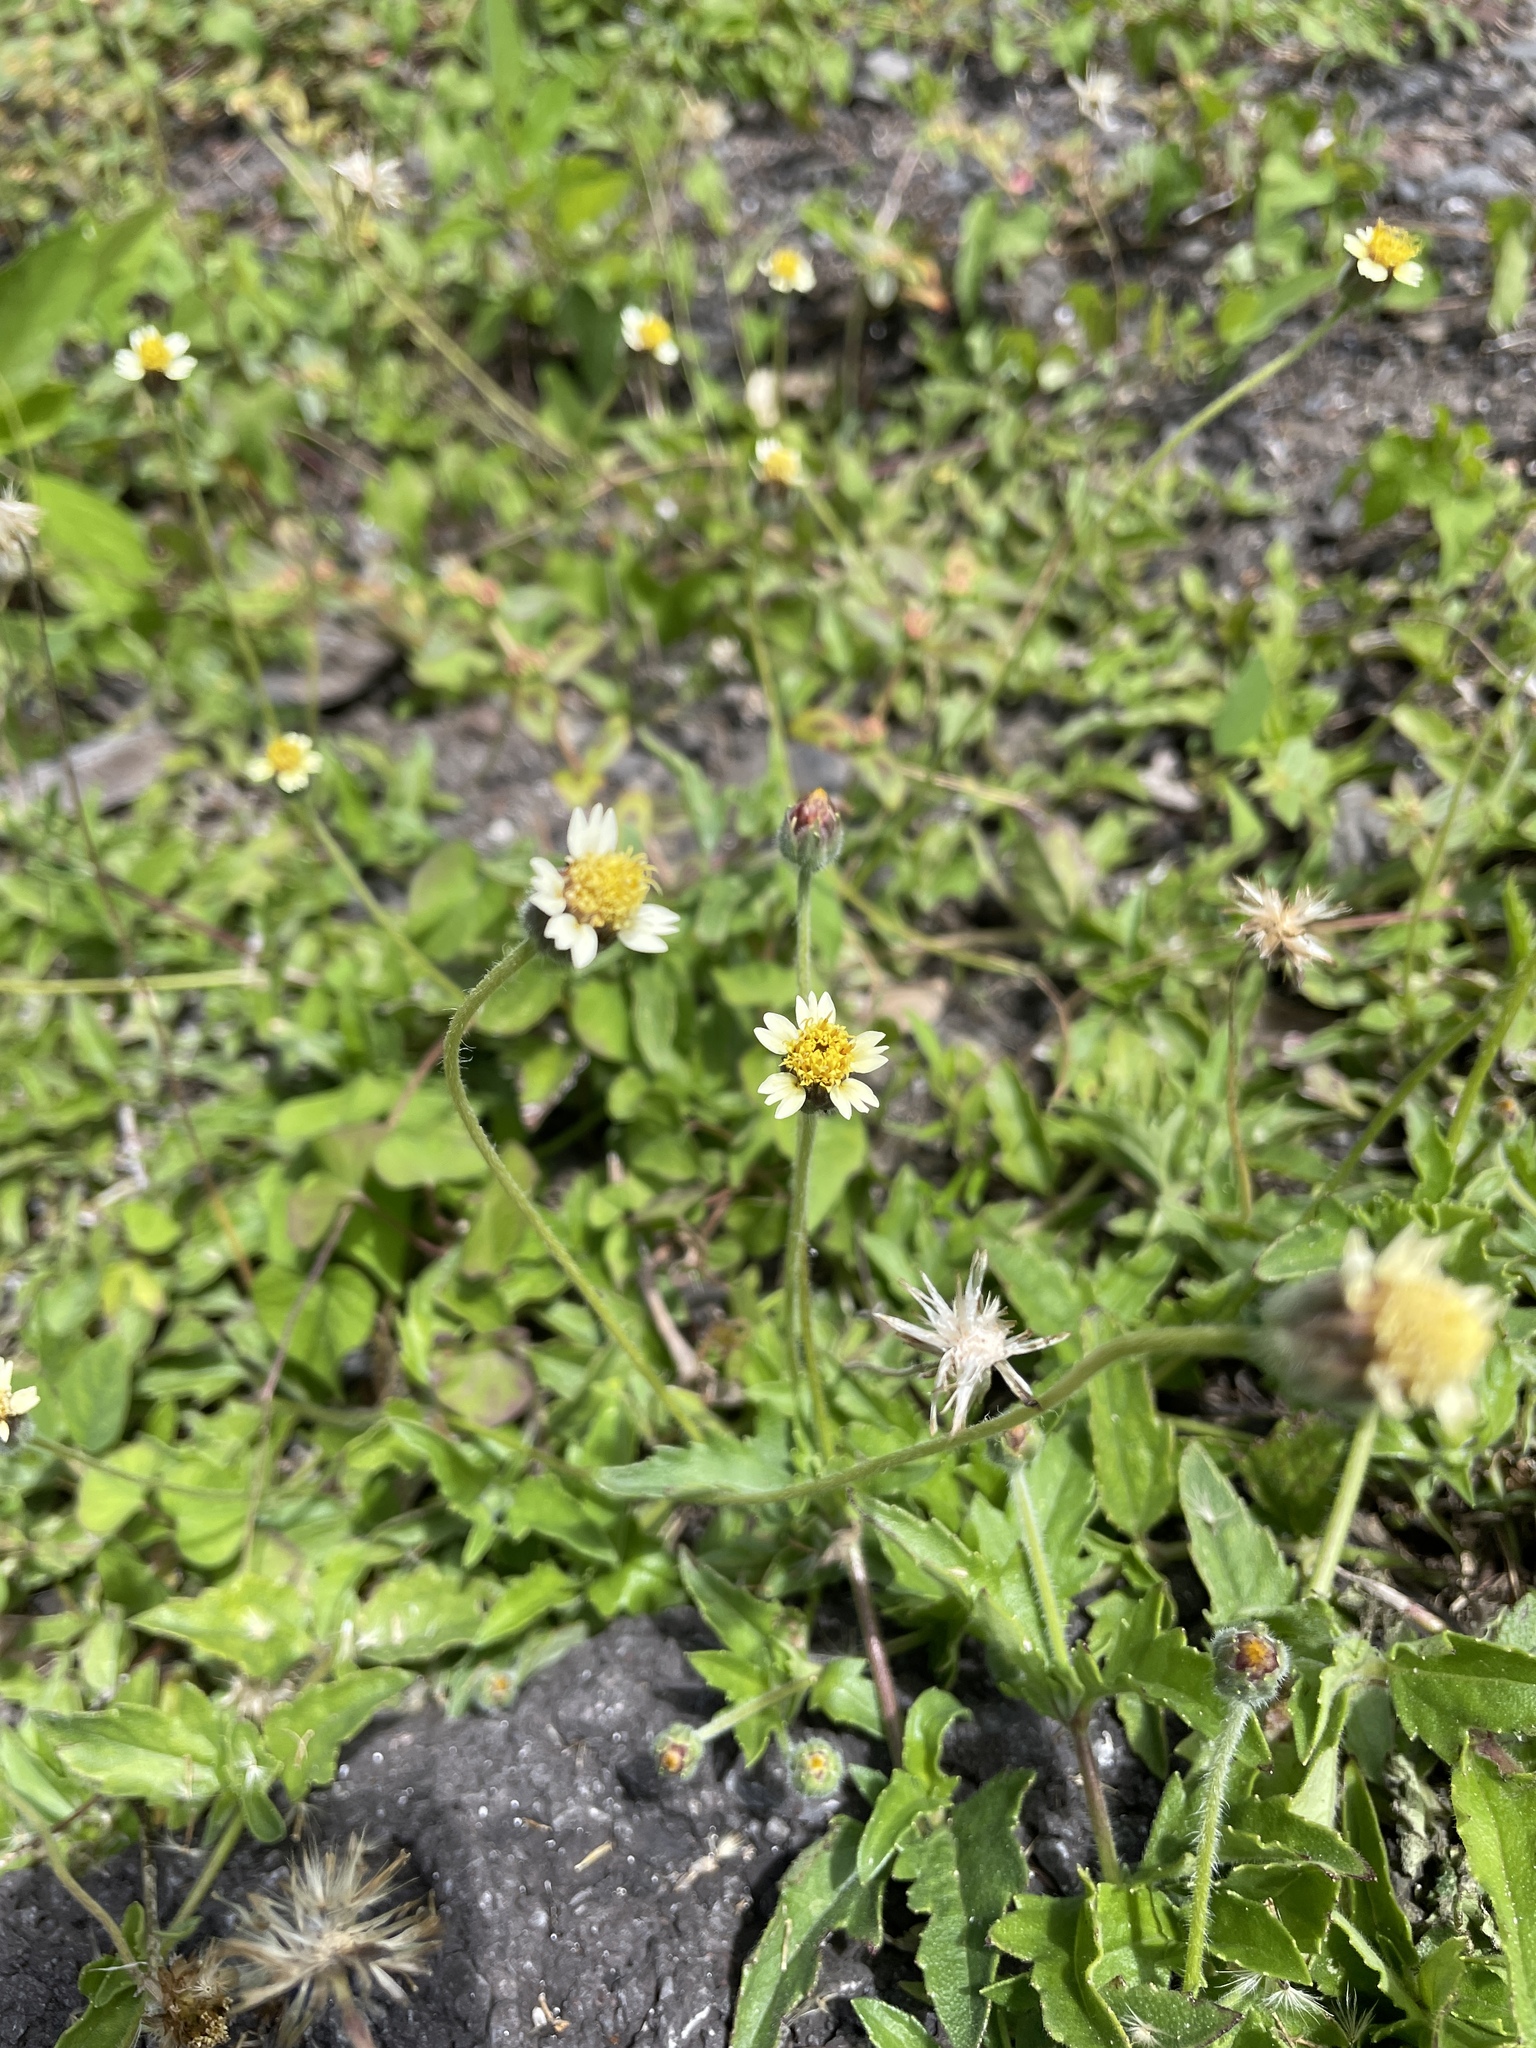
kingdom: Plantae
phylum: Tracheophyta
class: Magnoliopsida
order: Asterales
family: Asteraceae
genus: Tridax
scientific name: Tridax procumbens
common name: Coatbuttons
